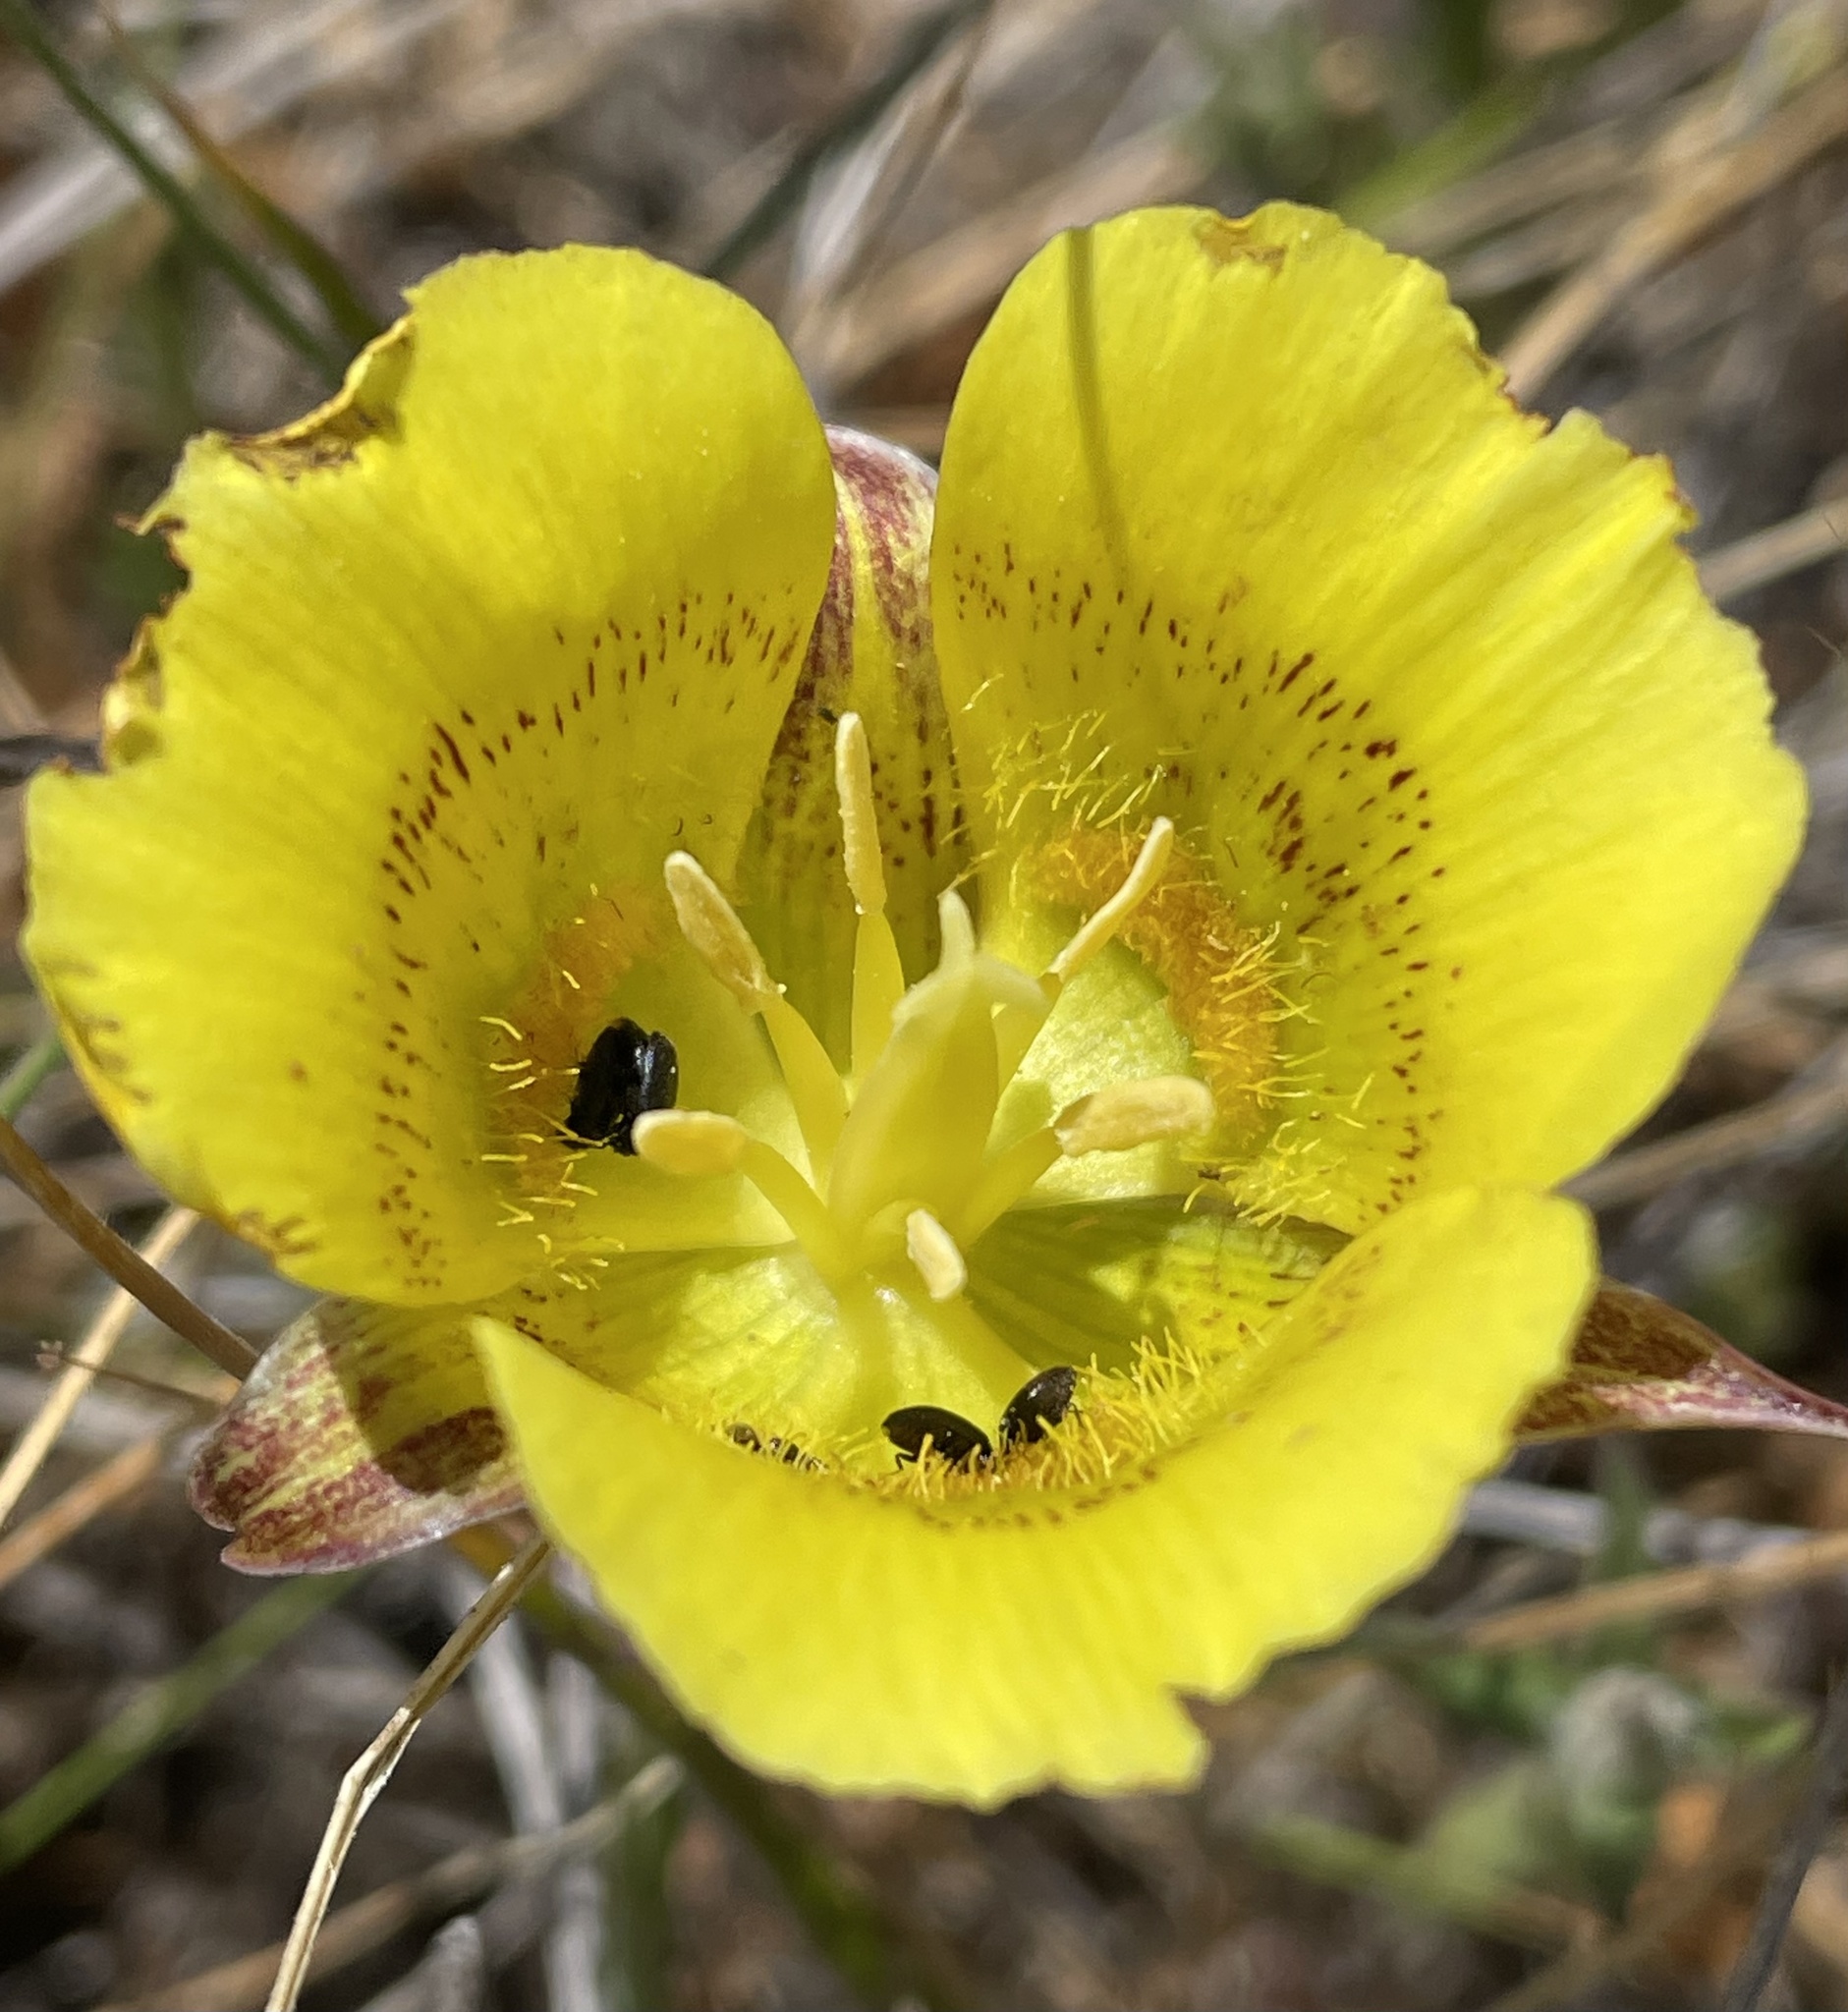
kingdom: Plantae
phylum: Tracheophyta
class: Liliopsida
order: Liliales
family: Liliaceae
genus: Calochortus
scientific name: Calochortus luteus
